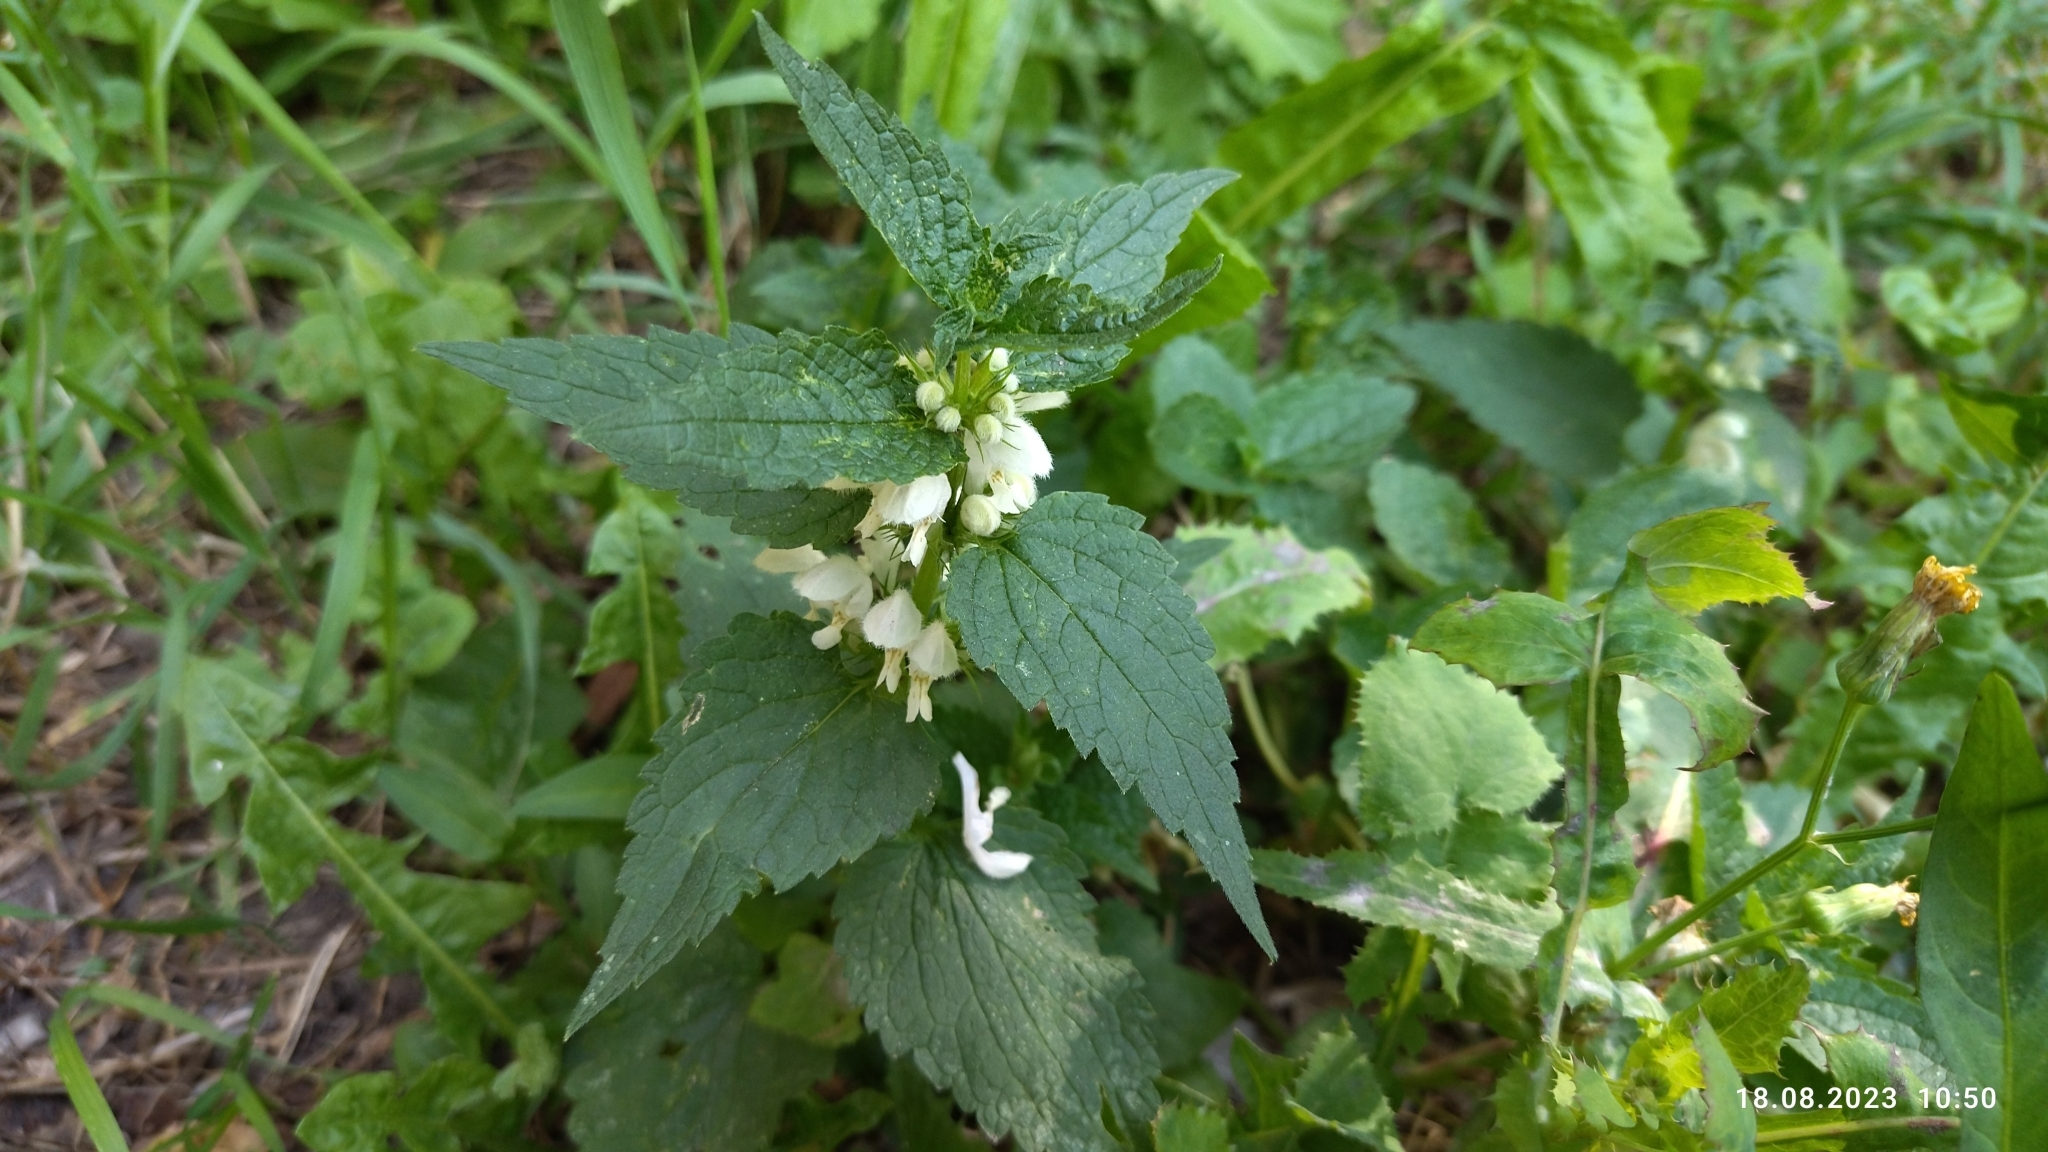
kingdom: Plantae
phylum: Tracheophyta
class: Magnoliopsida
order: Lamiales
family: Lamiaceae
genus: Lamium
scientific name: Lamium album
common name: White dead-nettle
